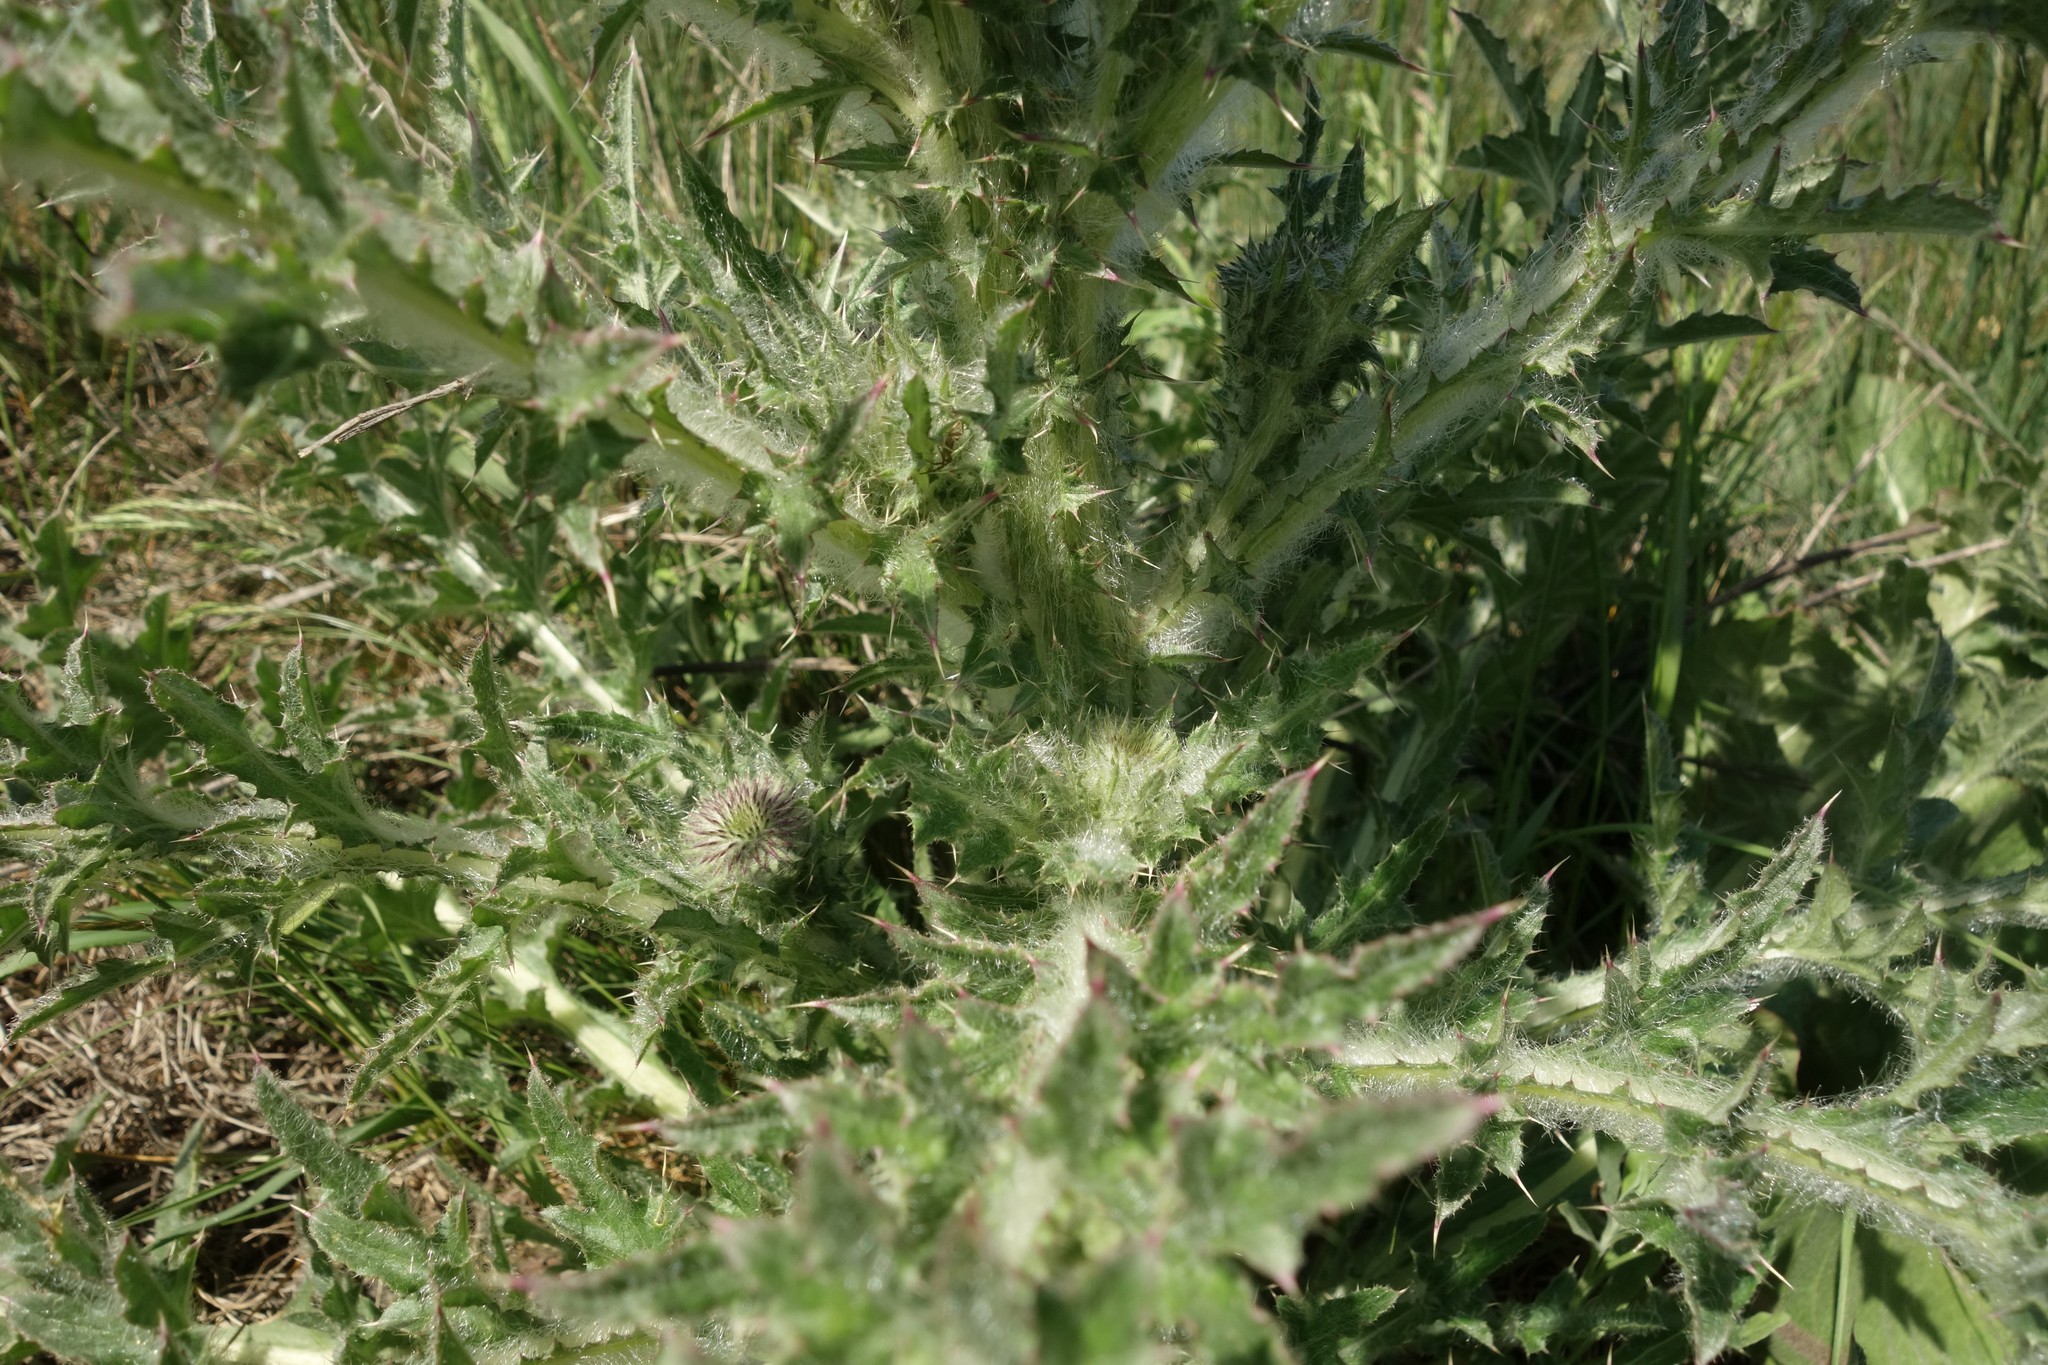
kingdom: Plantae
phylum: Tracheophyta
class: Magnoliopsida
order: Asterales
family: Asteraceae
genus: Carduus
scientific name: Carduus uncinatus
